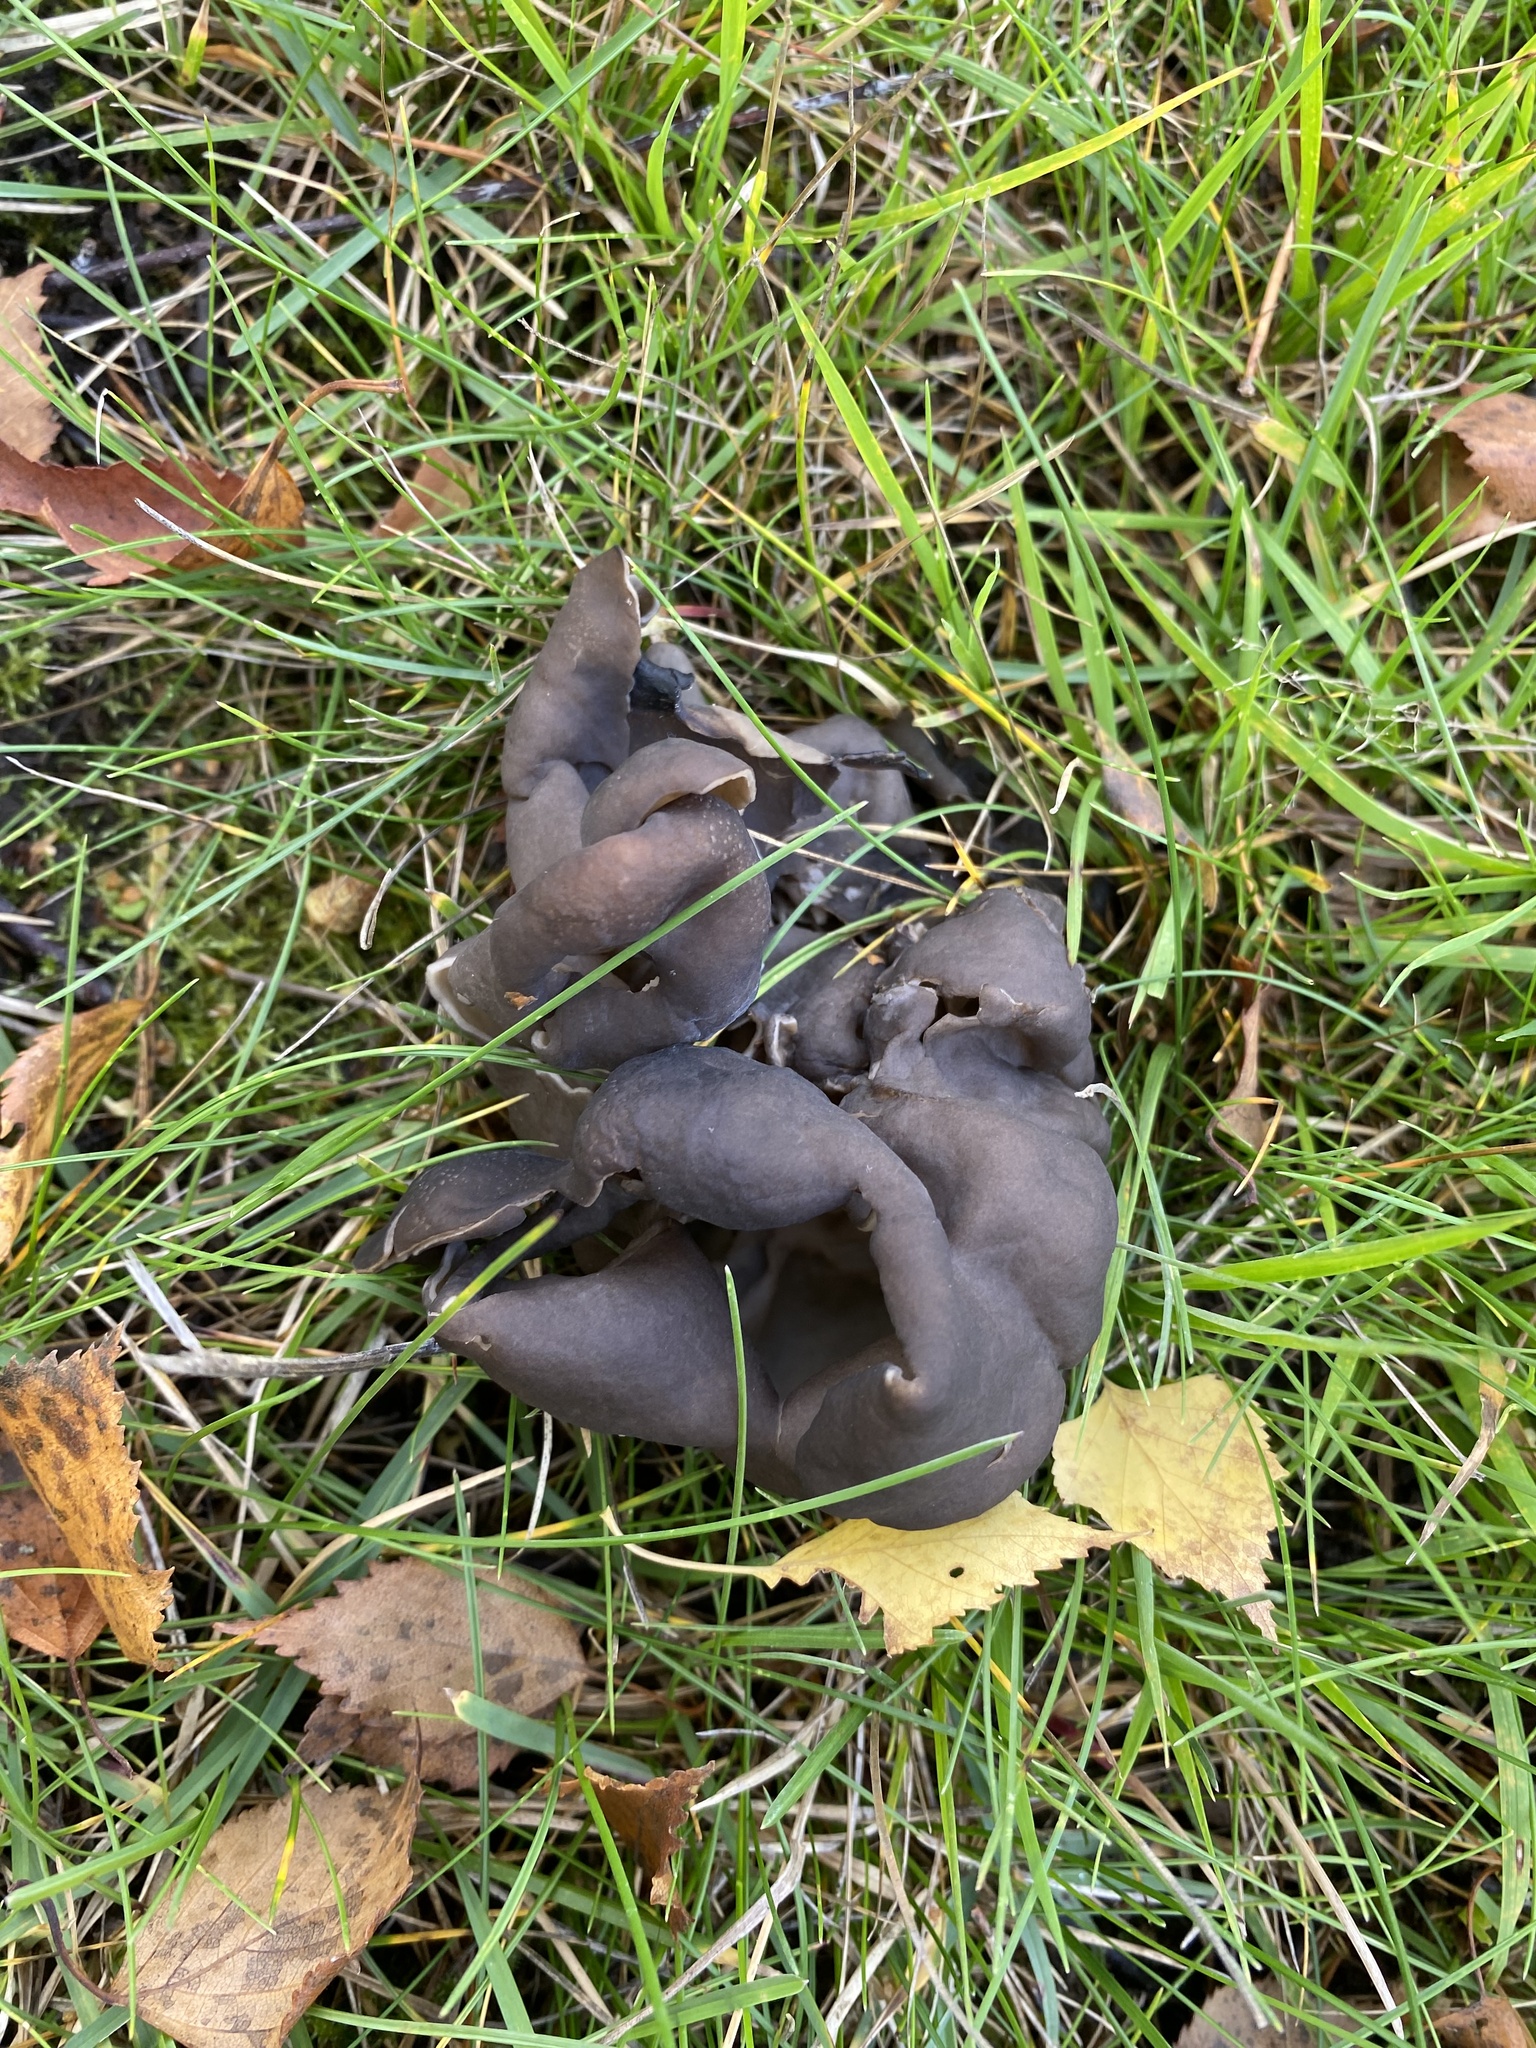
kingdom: Fungi
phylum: Ascomycota
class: Pezizomycetes
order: Pezizales
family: Helvellaceae
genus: Helvella
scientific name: Helvella lacunosa
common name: Elfin saddle
